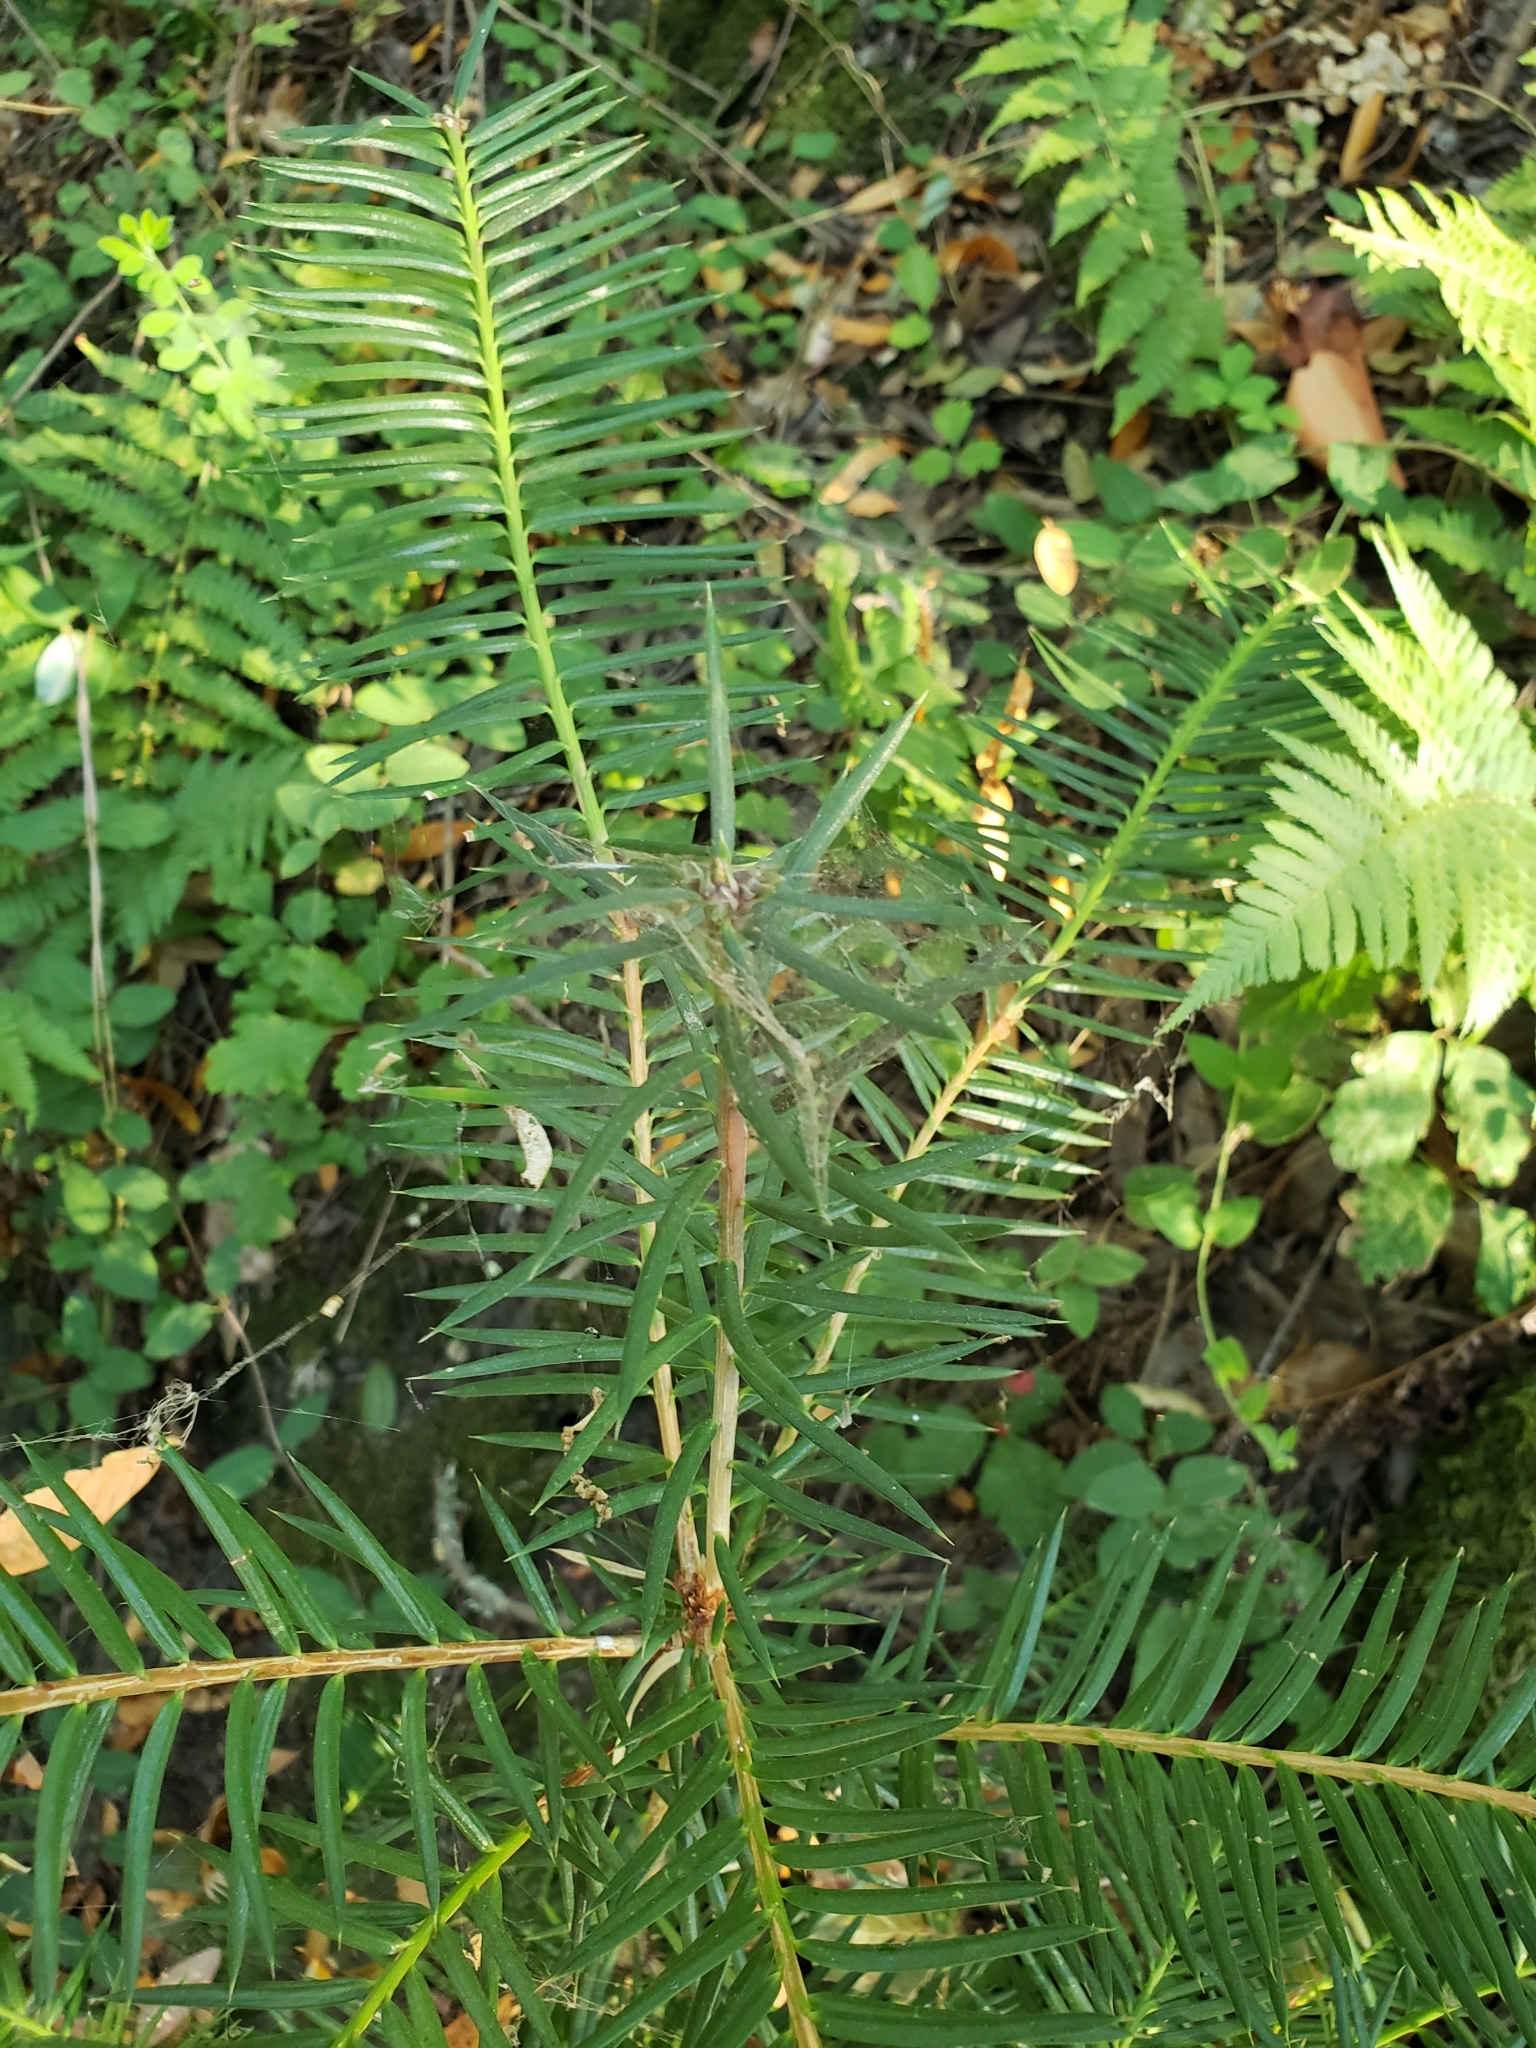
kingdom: Plantae
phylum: Tracheophyta
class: Pinopsida
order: Pinales
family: Taxaceae
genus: Torreya
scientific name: Torreya californica
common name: California torreya
